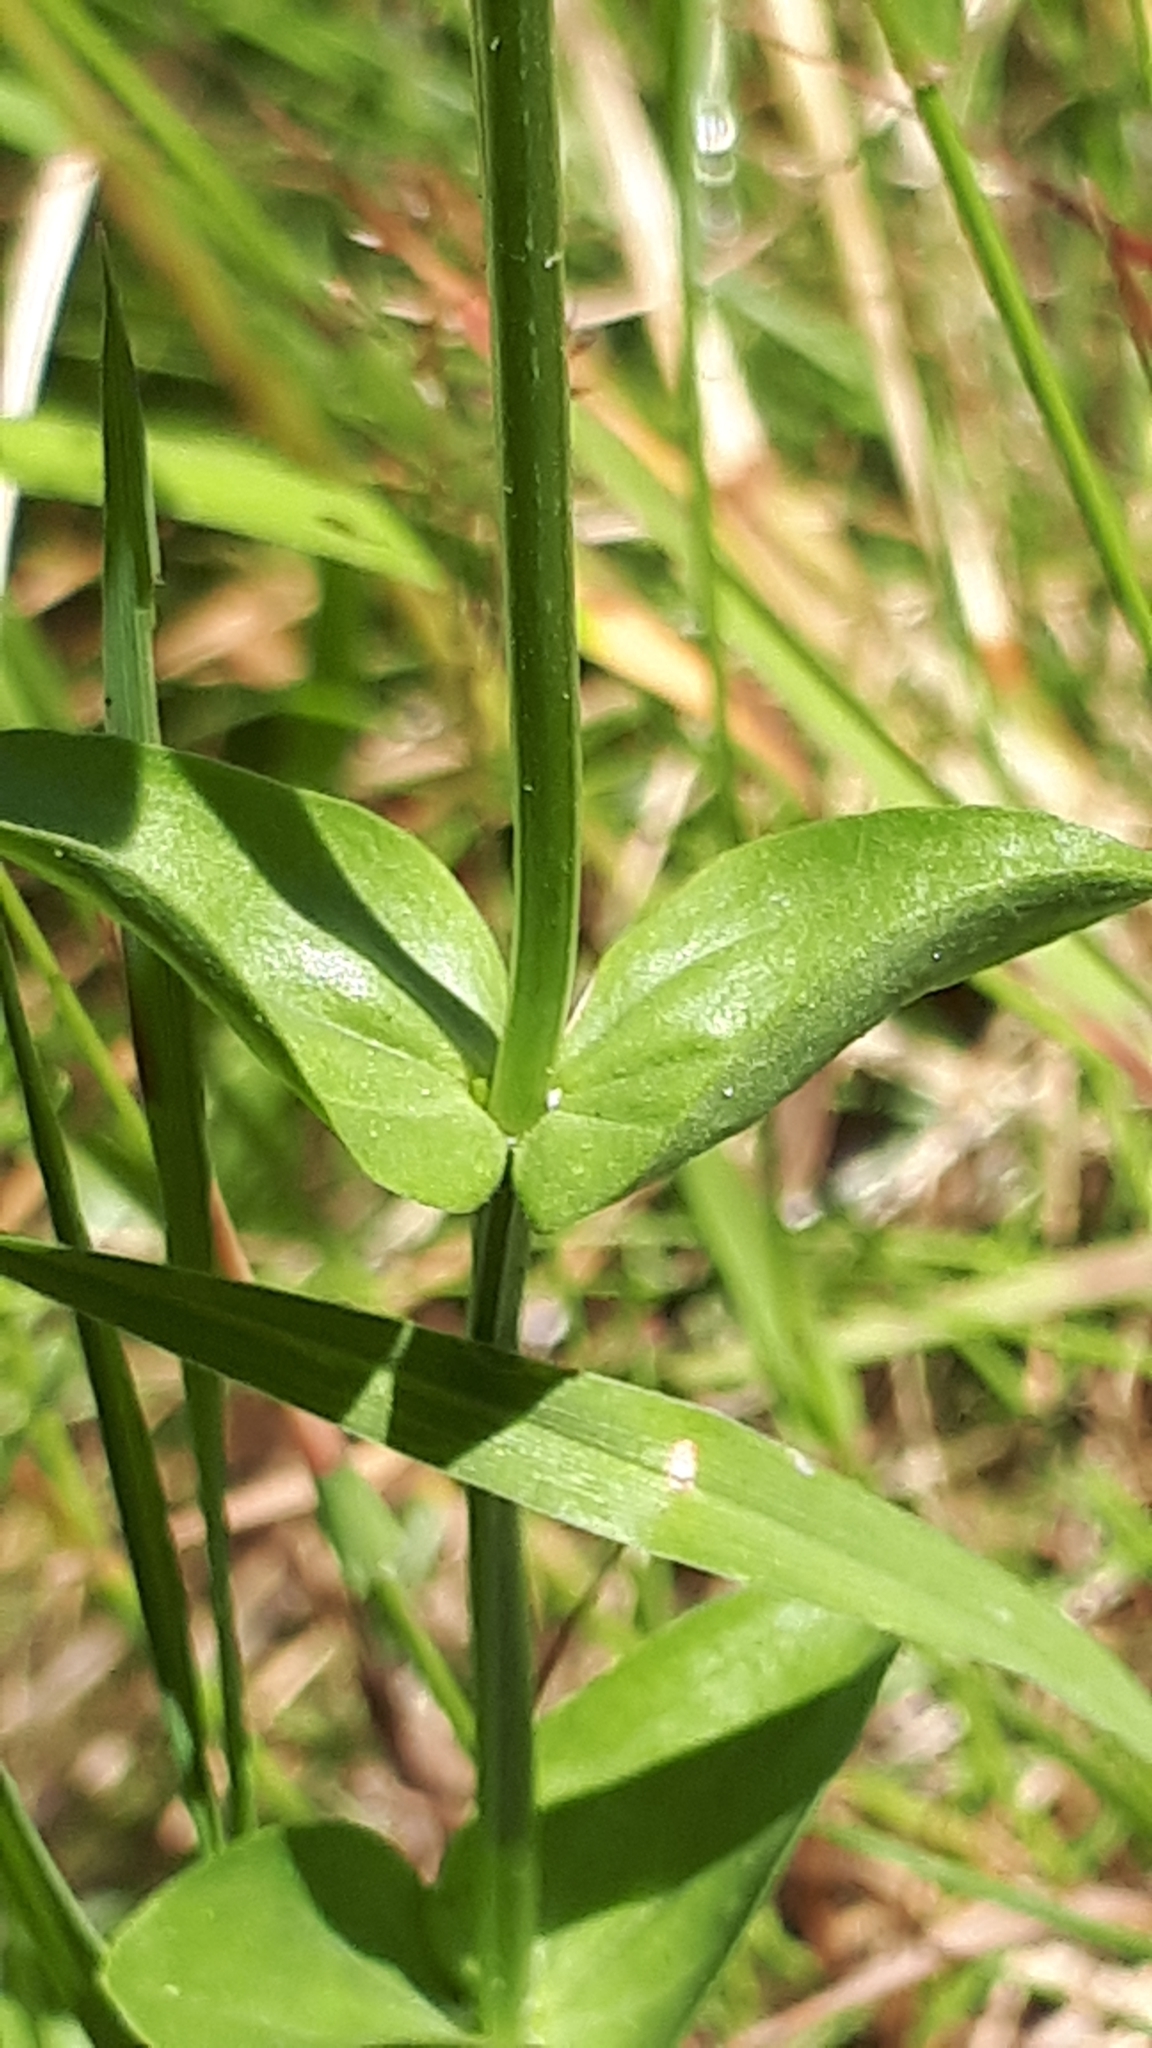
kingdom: Plantae
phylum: Tracheophyta
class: Magnoliopsida
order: Gentianales
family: Gentianaceae
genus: Centaurium
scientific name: Centaurium erythraea
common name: Common centaury
